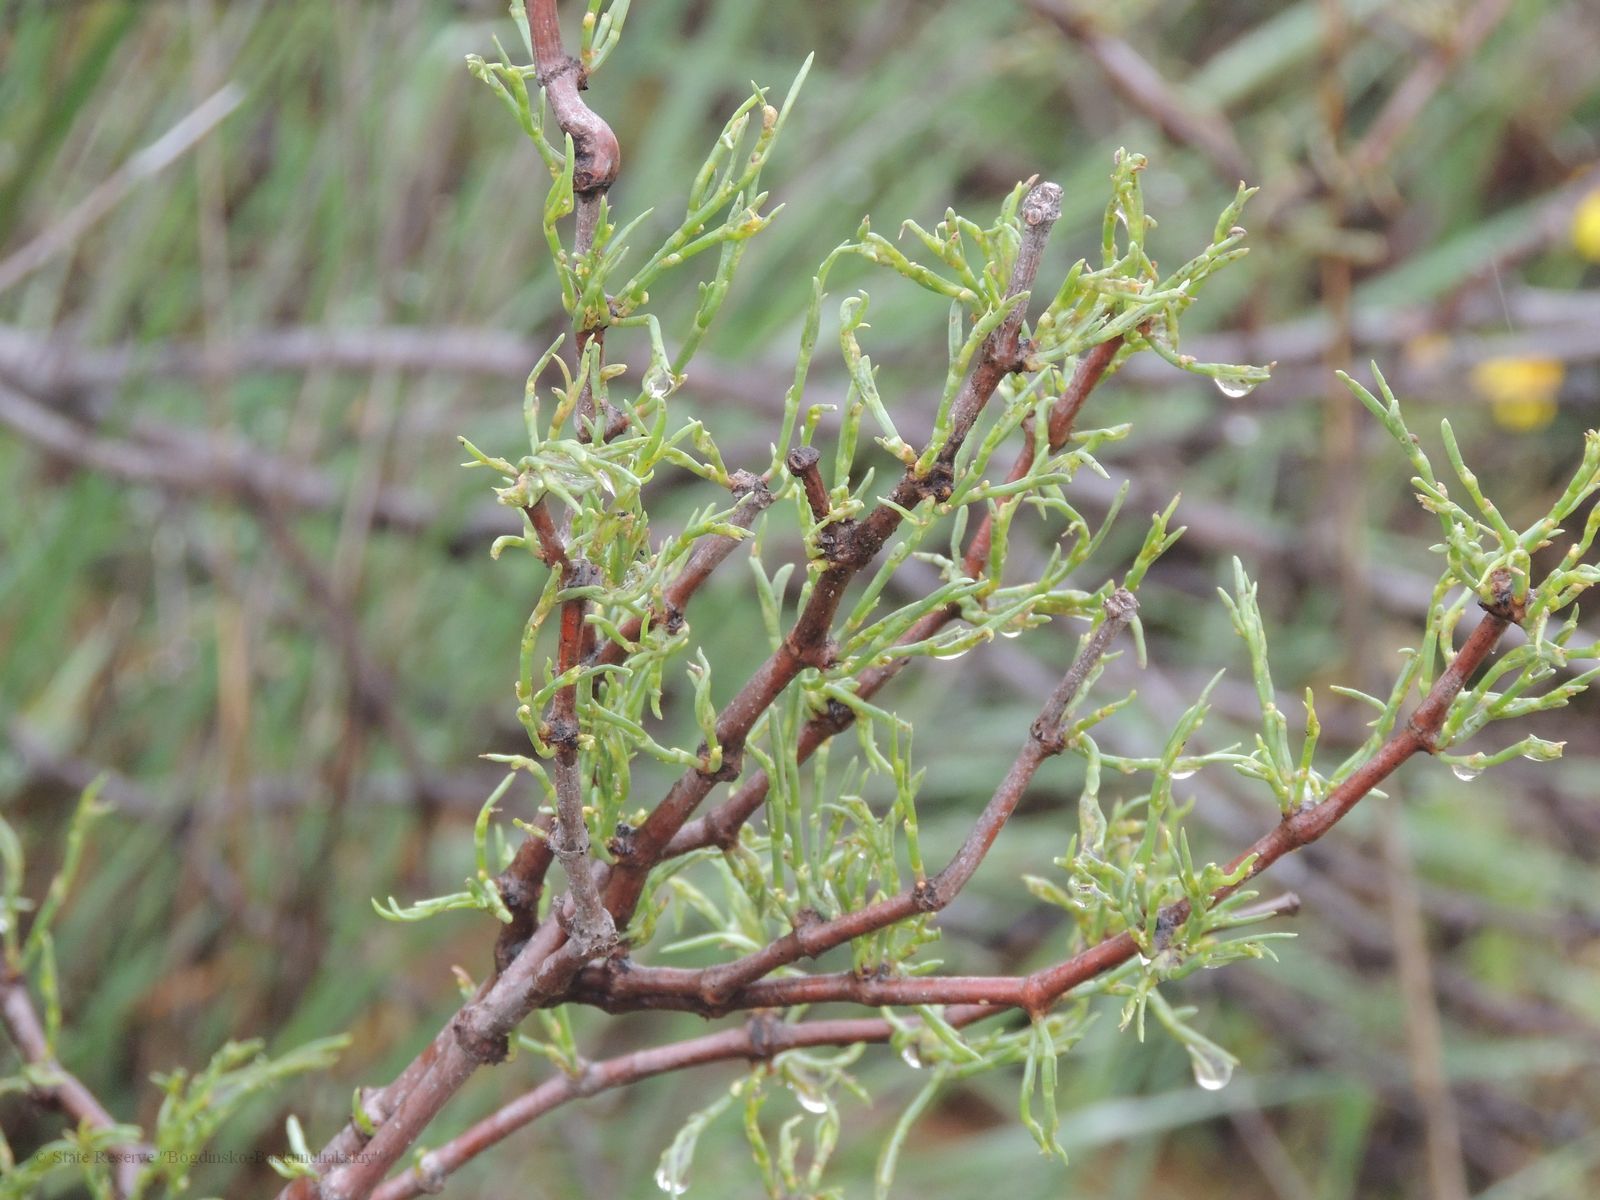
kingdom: Plantae
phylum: Tracheophyta
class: Magnoliopsida
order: Caryophyllales
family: Polygonaceae
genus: Calligonum
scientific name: Calligonum aphyllum
